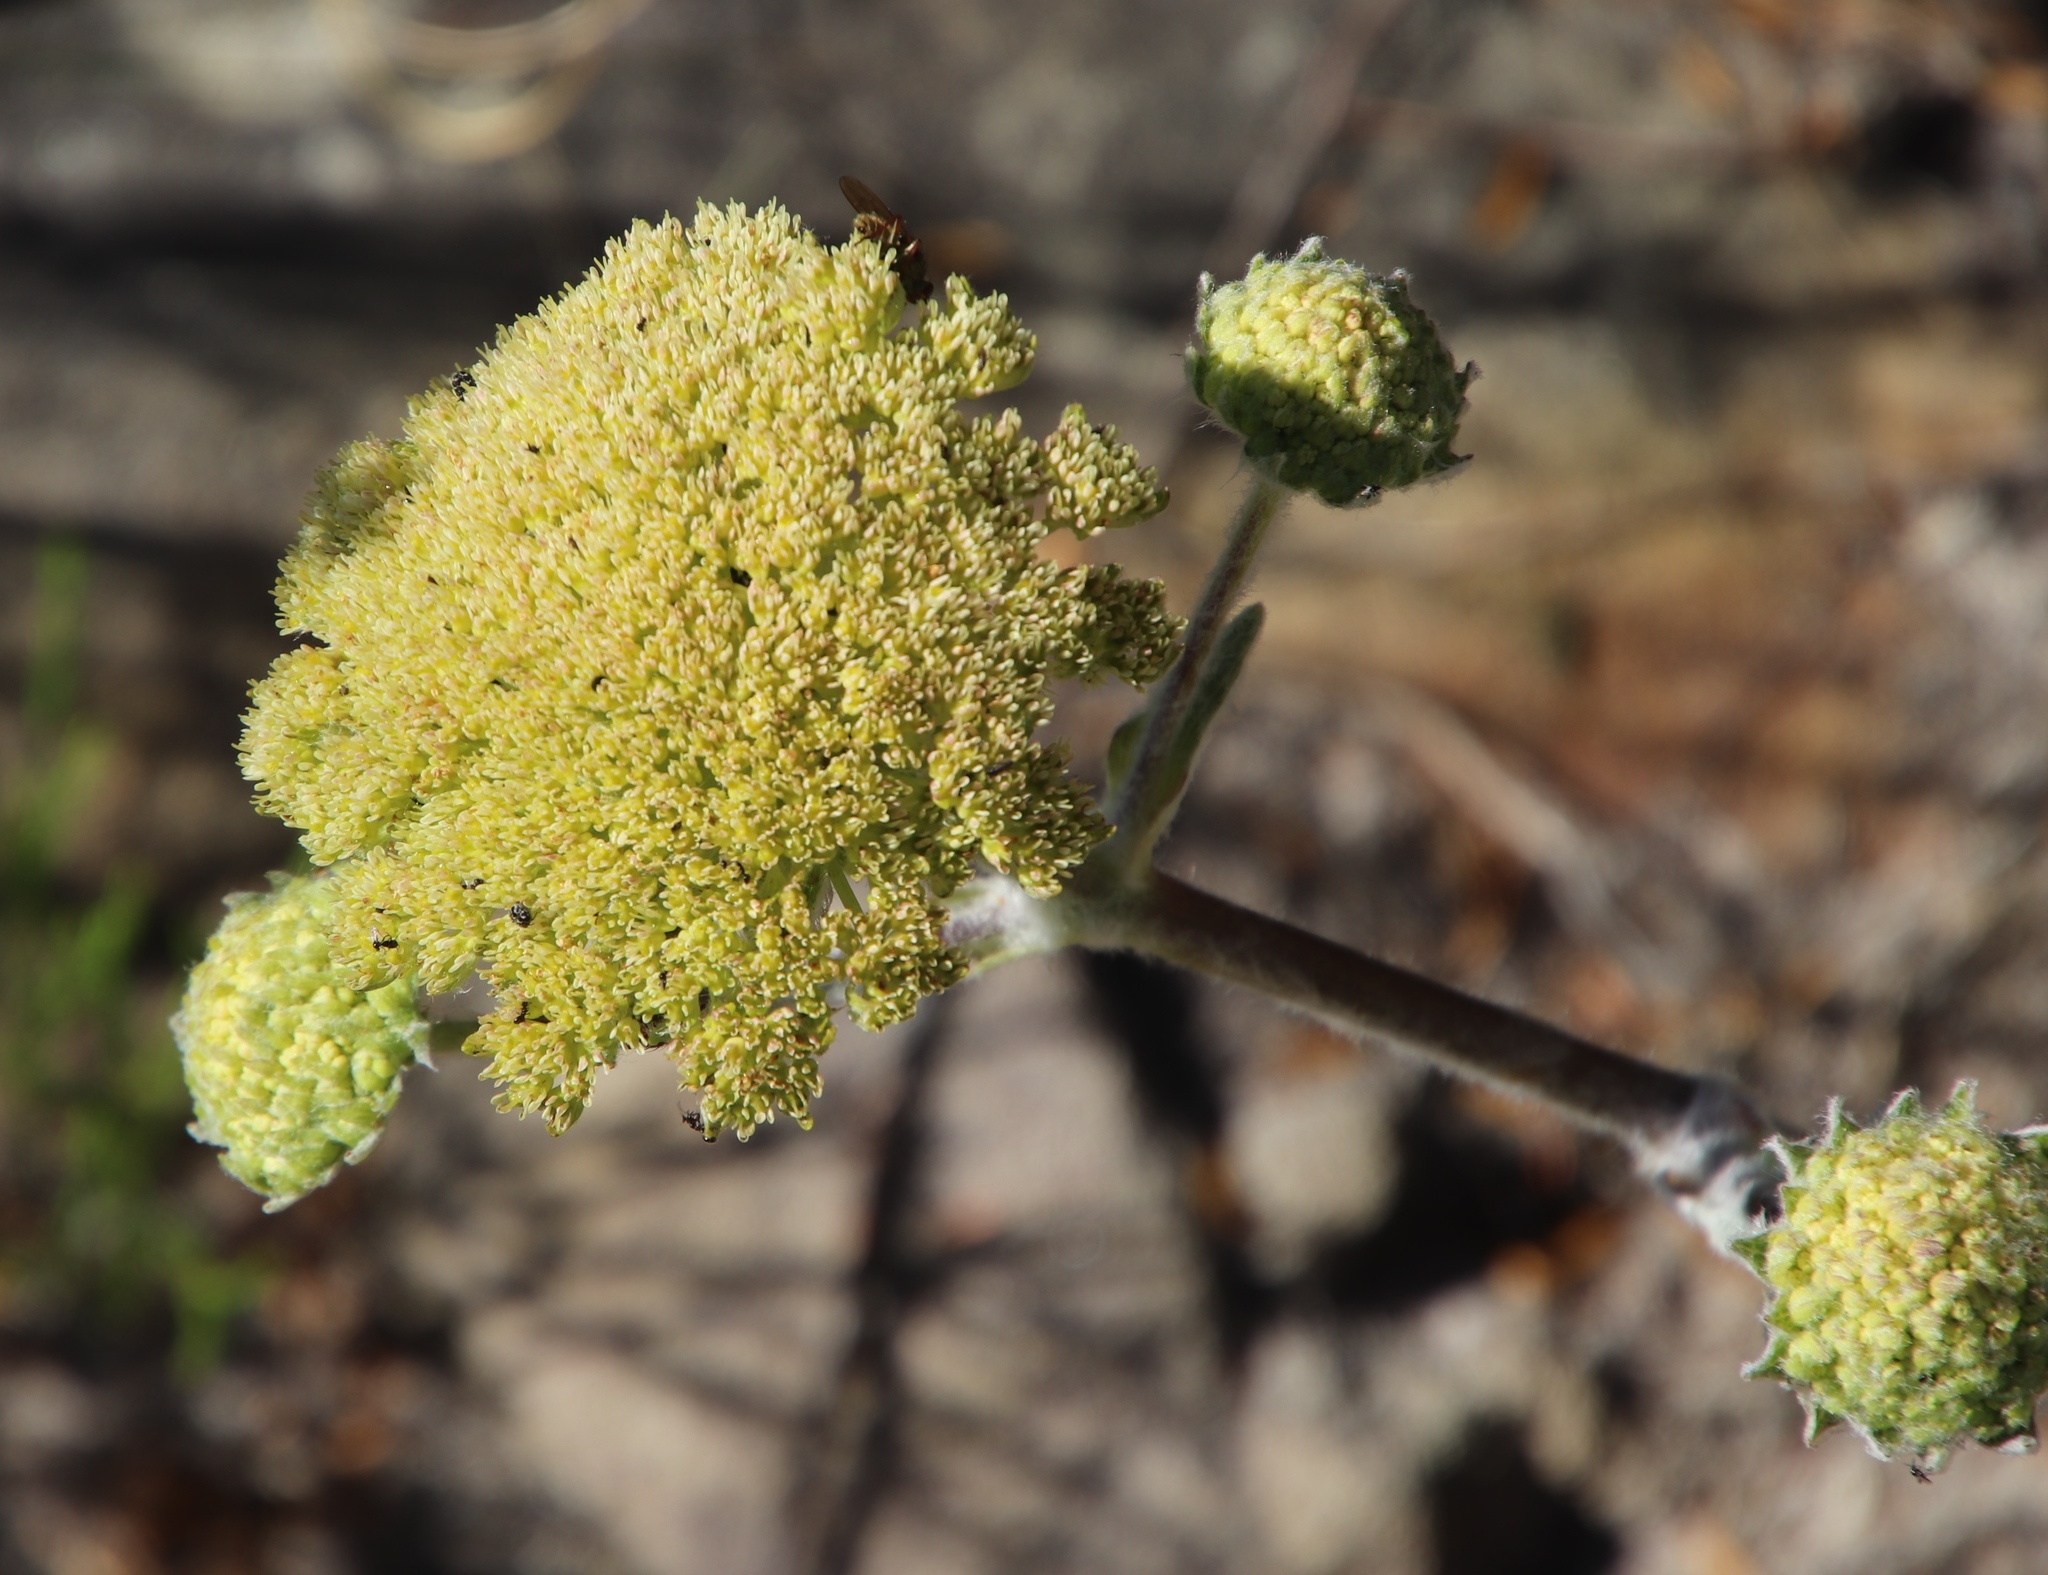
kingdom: Plantae
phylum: Tracheophyta
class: Magnoliopsida
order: Apiales
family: Apiaceae
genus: Hermas
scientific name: Hermas lanata
